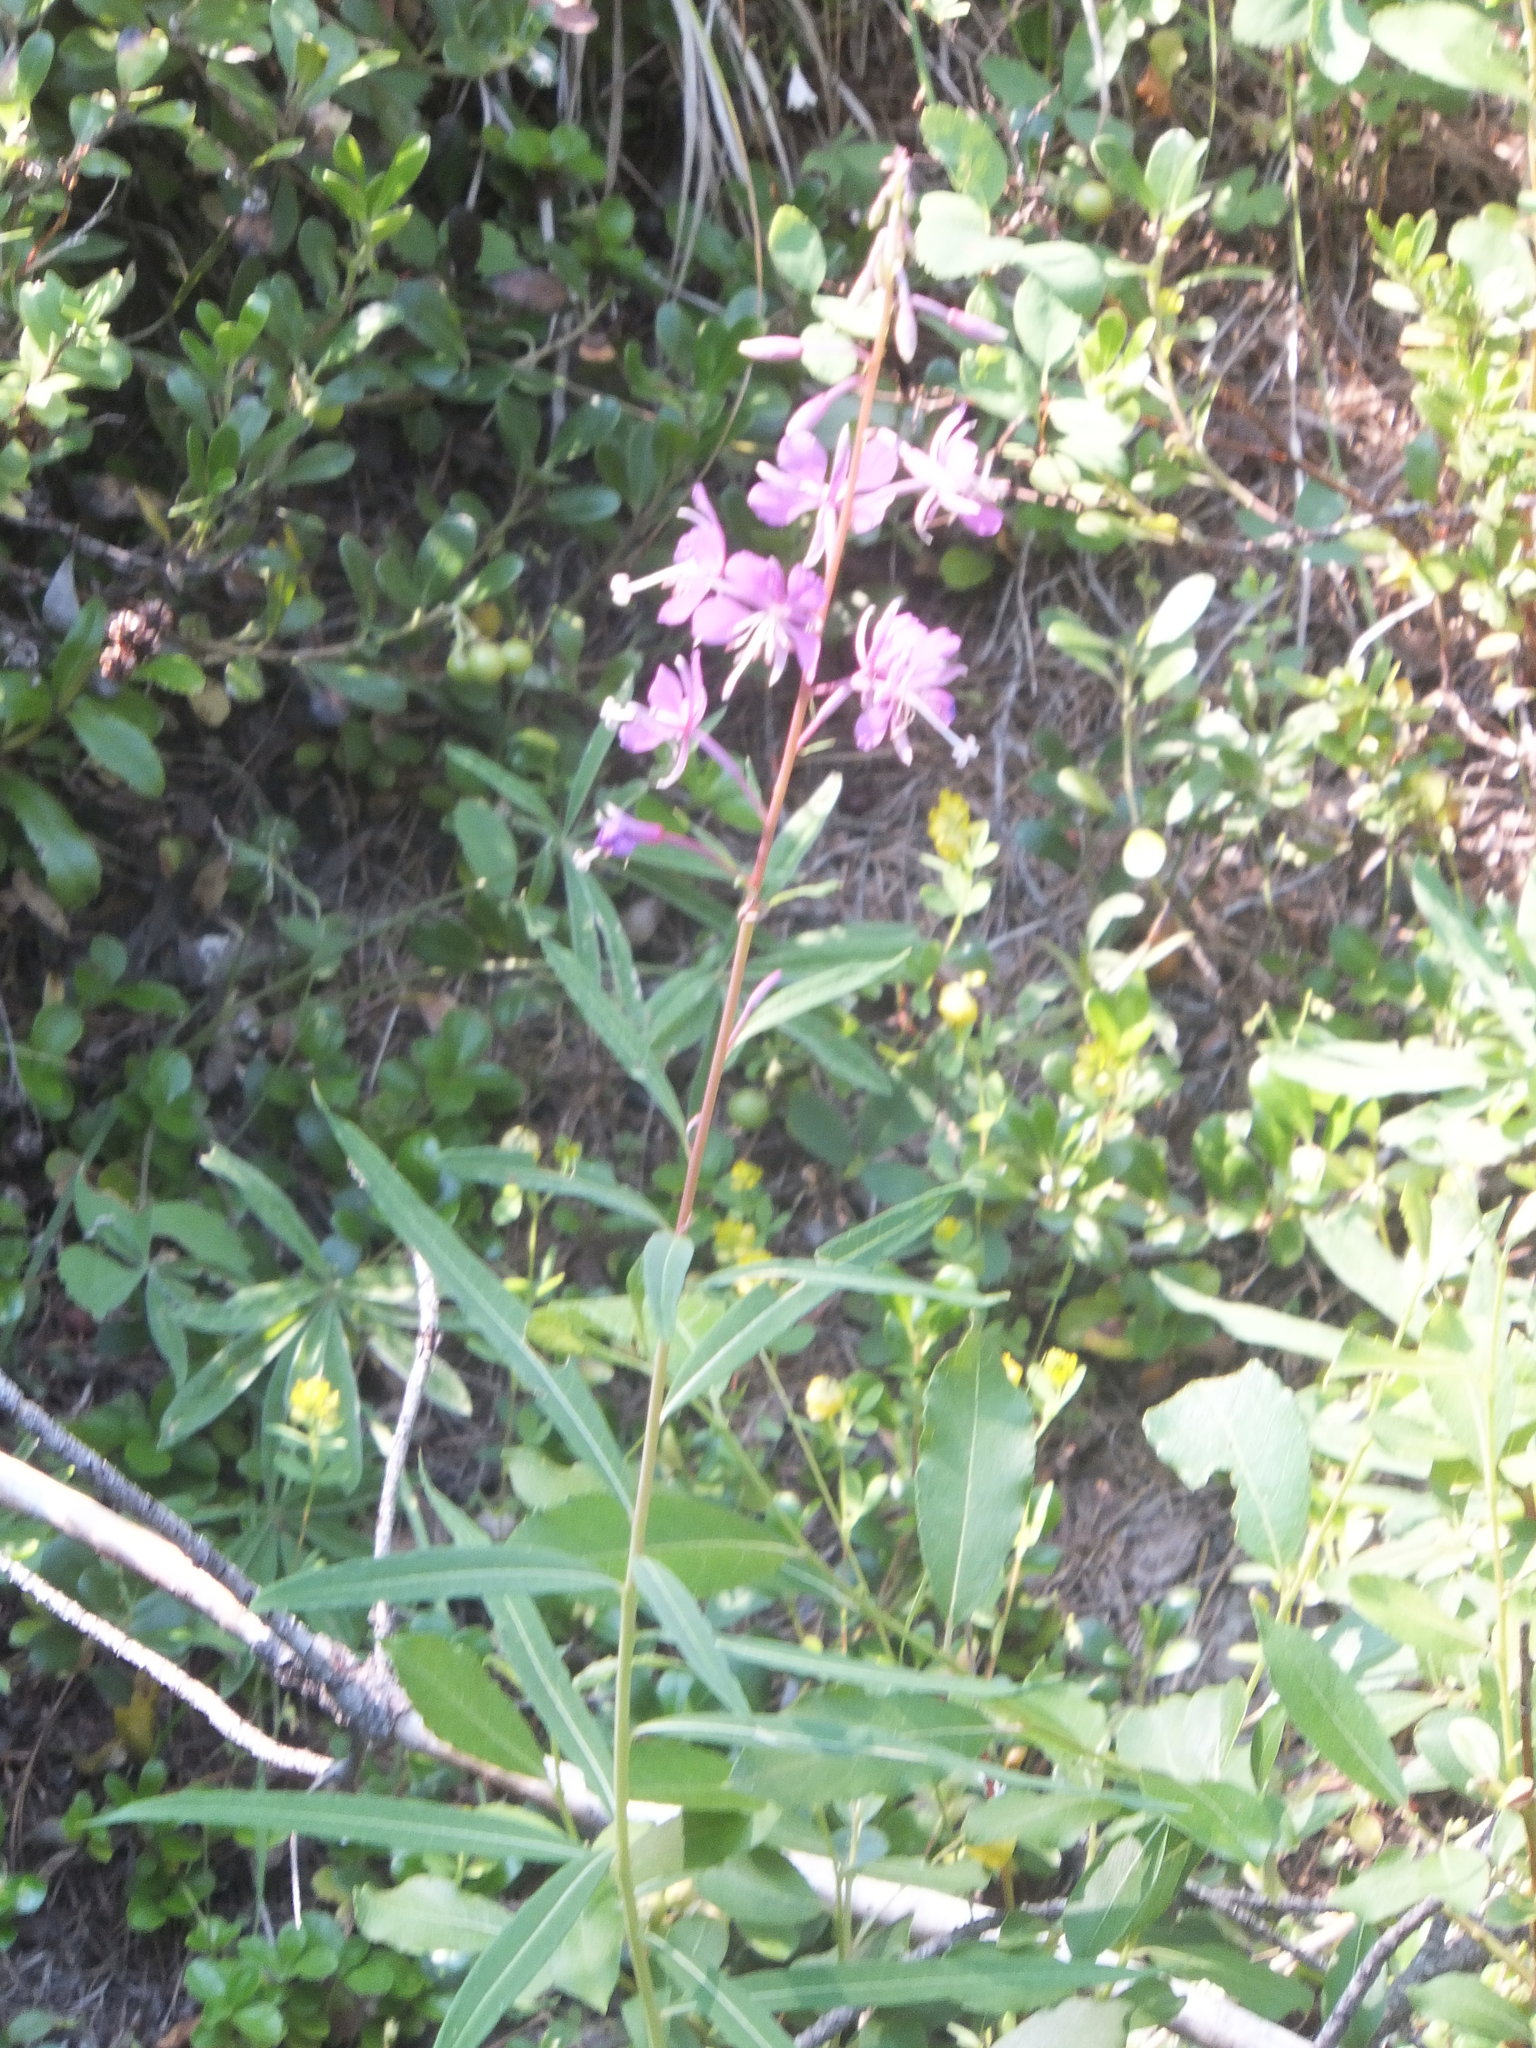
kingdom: Plantae
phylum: Tracheophyta
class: Magnoliopsida
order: Myrtales
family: Onagraceae
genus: Chamaenerion
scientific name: Chamaenerion angustifolium
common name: Fireweed
